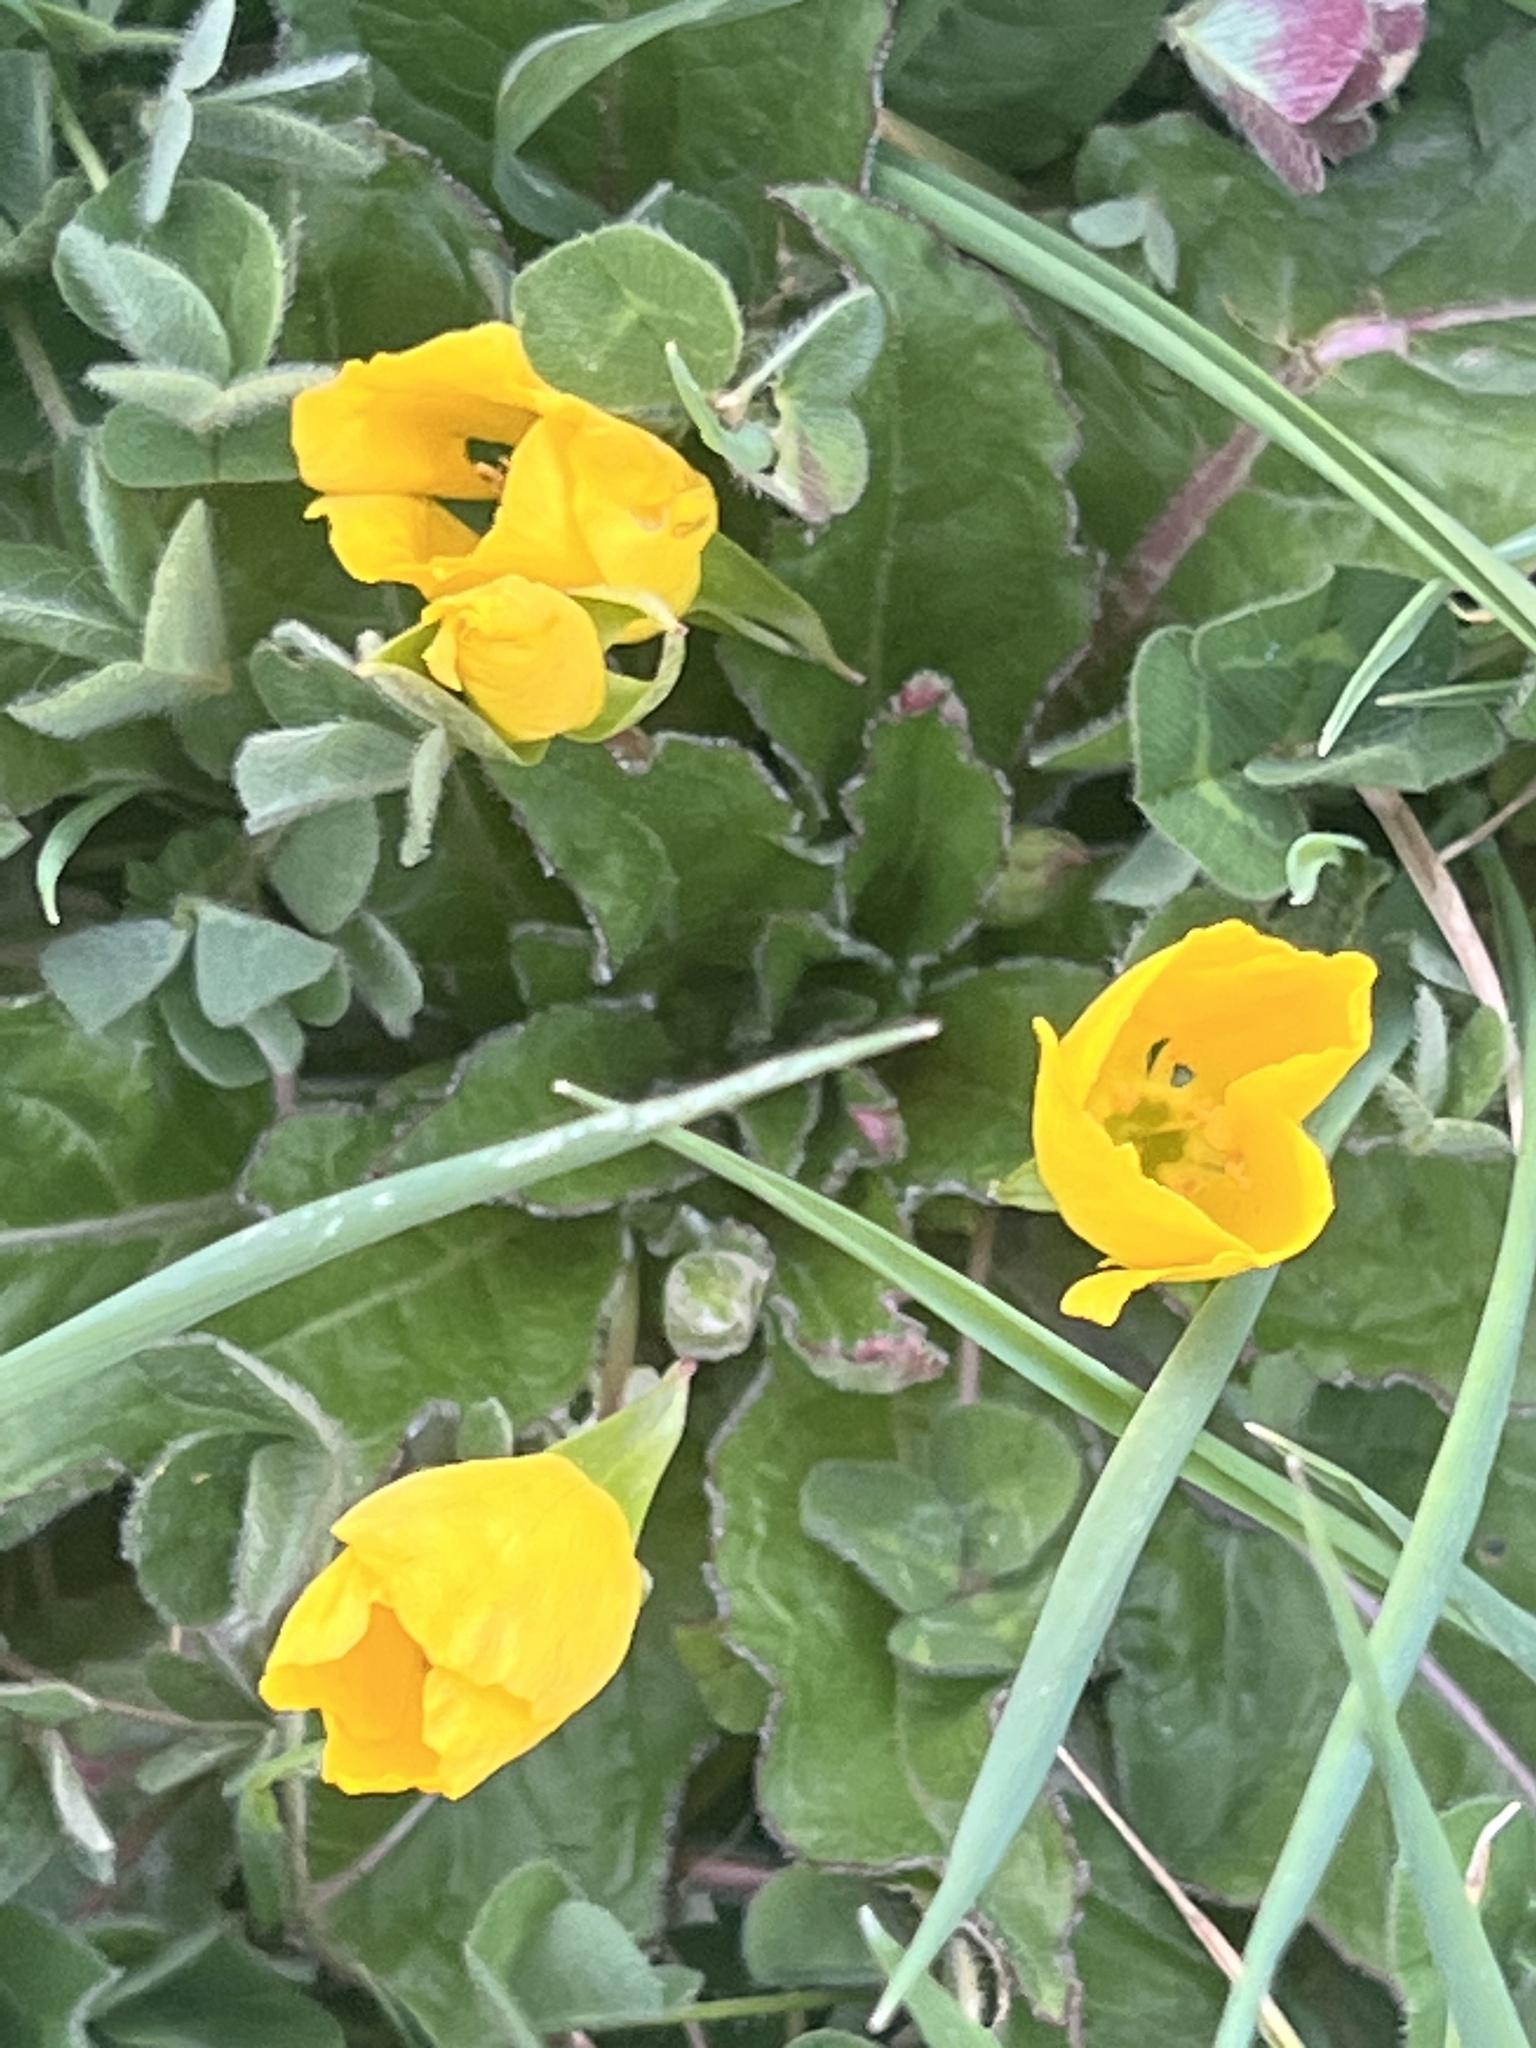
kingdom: Plantae
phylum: Tracheophyta
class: Magnoliopsida
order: Myrtales
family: Onagraceae
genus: Taraxia
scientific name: Taraxia ovata
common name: Goldeneggs
